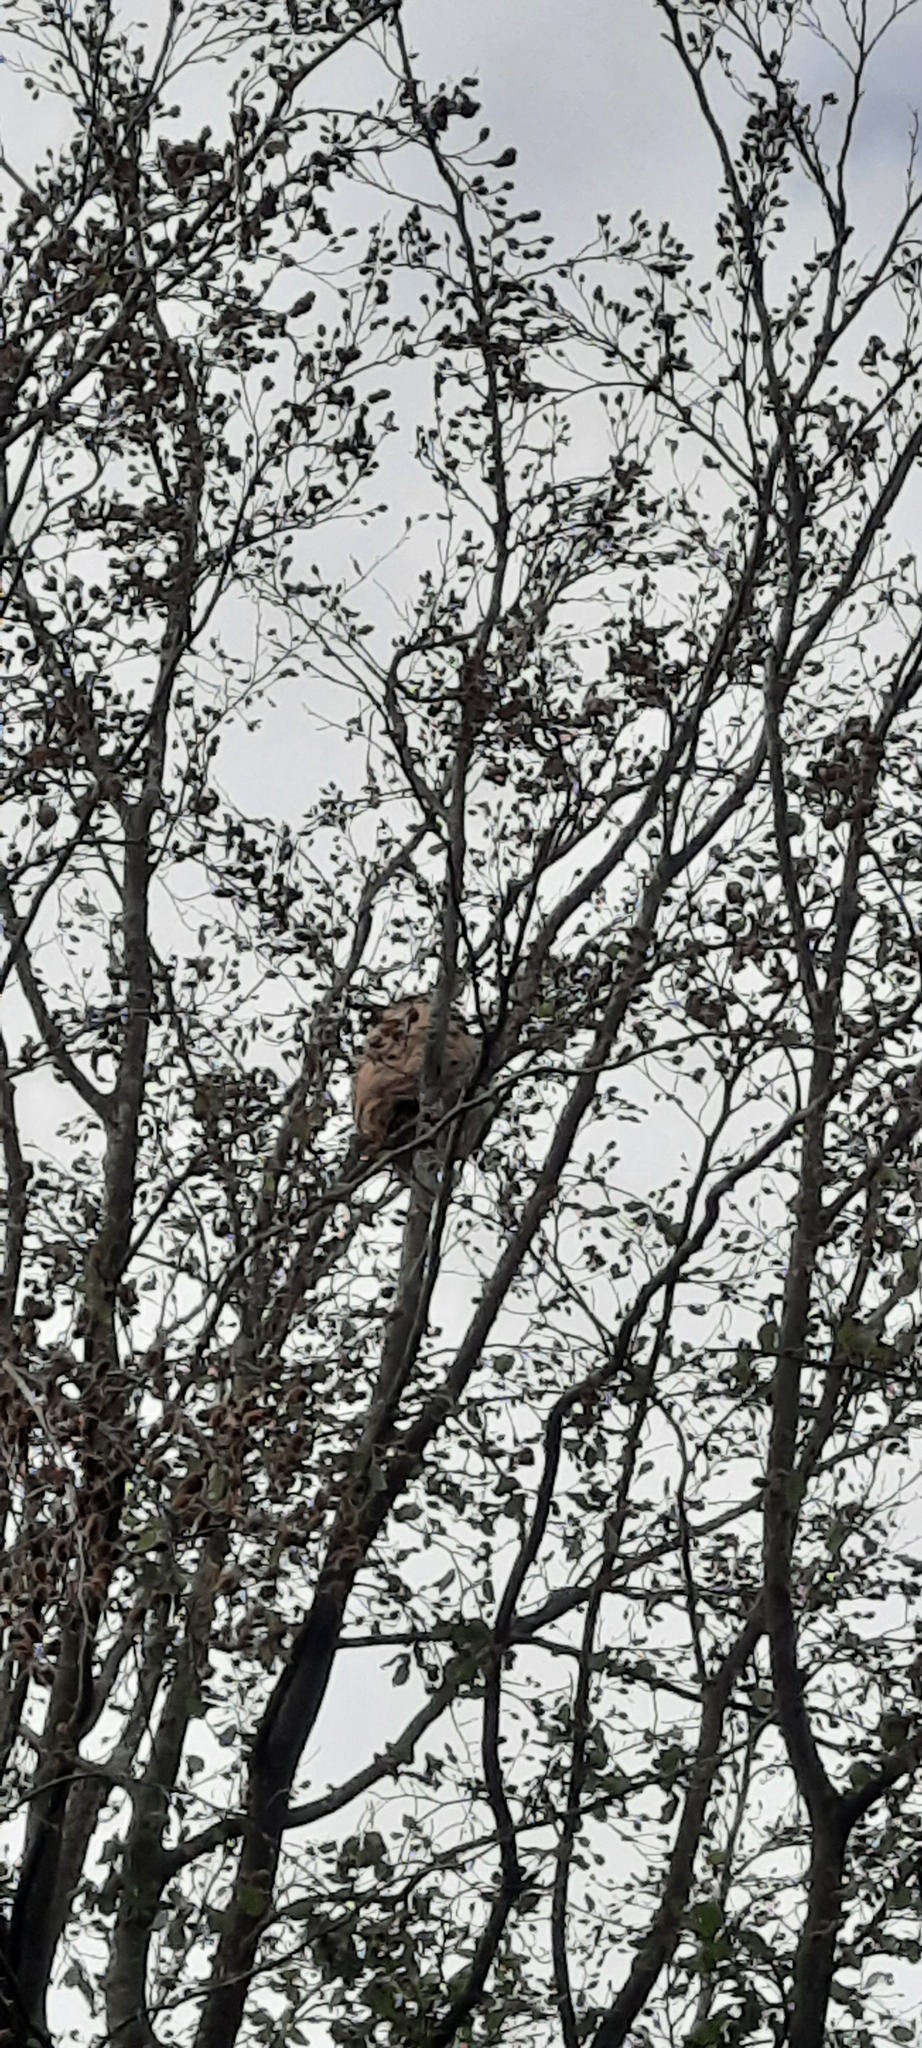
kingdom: Animalia
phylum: Arthropoda
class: Insecta
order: Hymenoptera
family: Vespidae
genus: Vespa
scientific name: Vespa velutina
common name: Asian hornet
